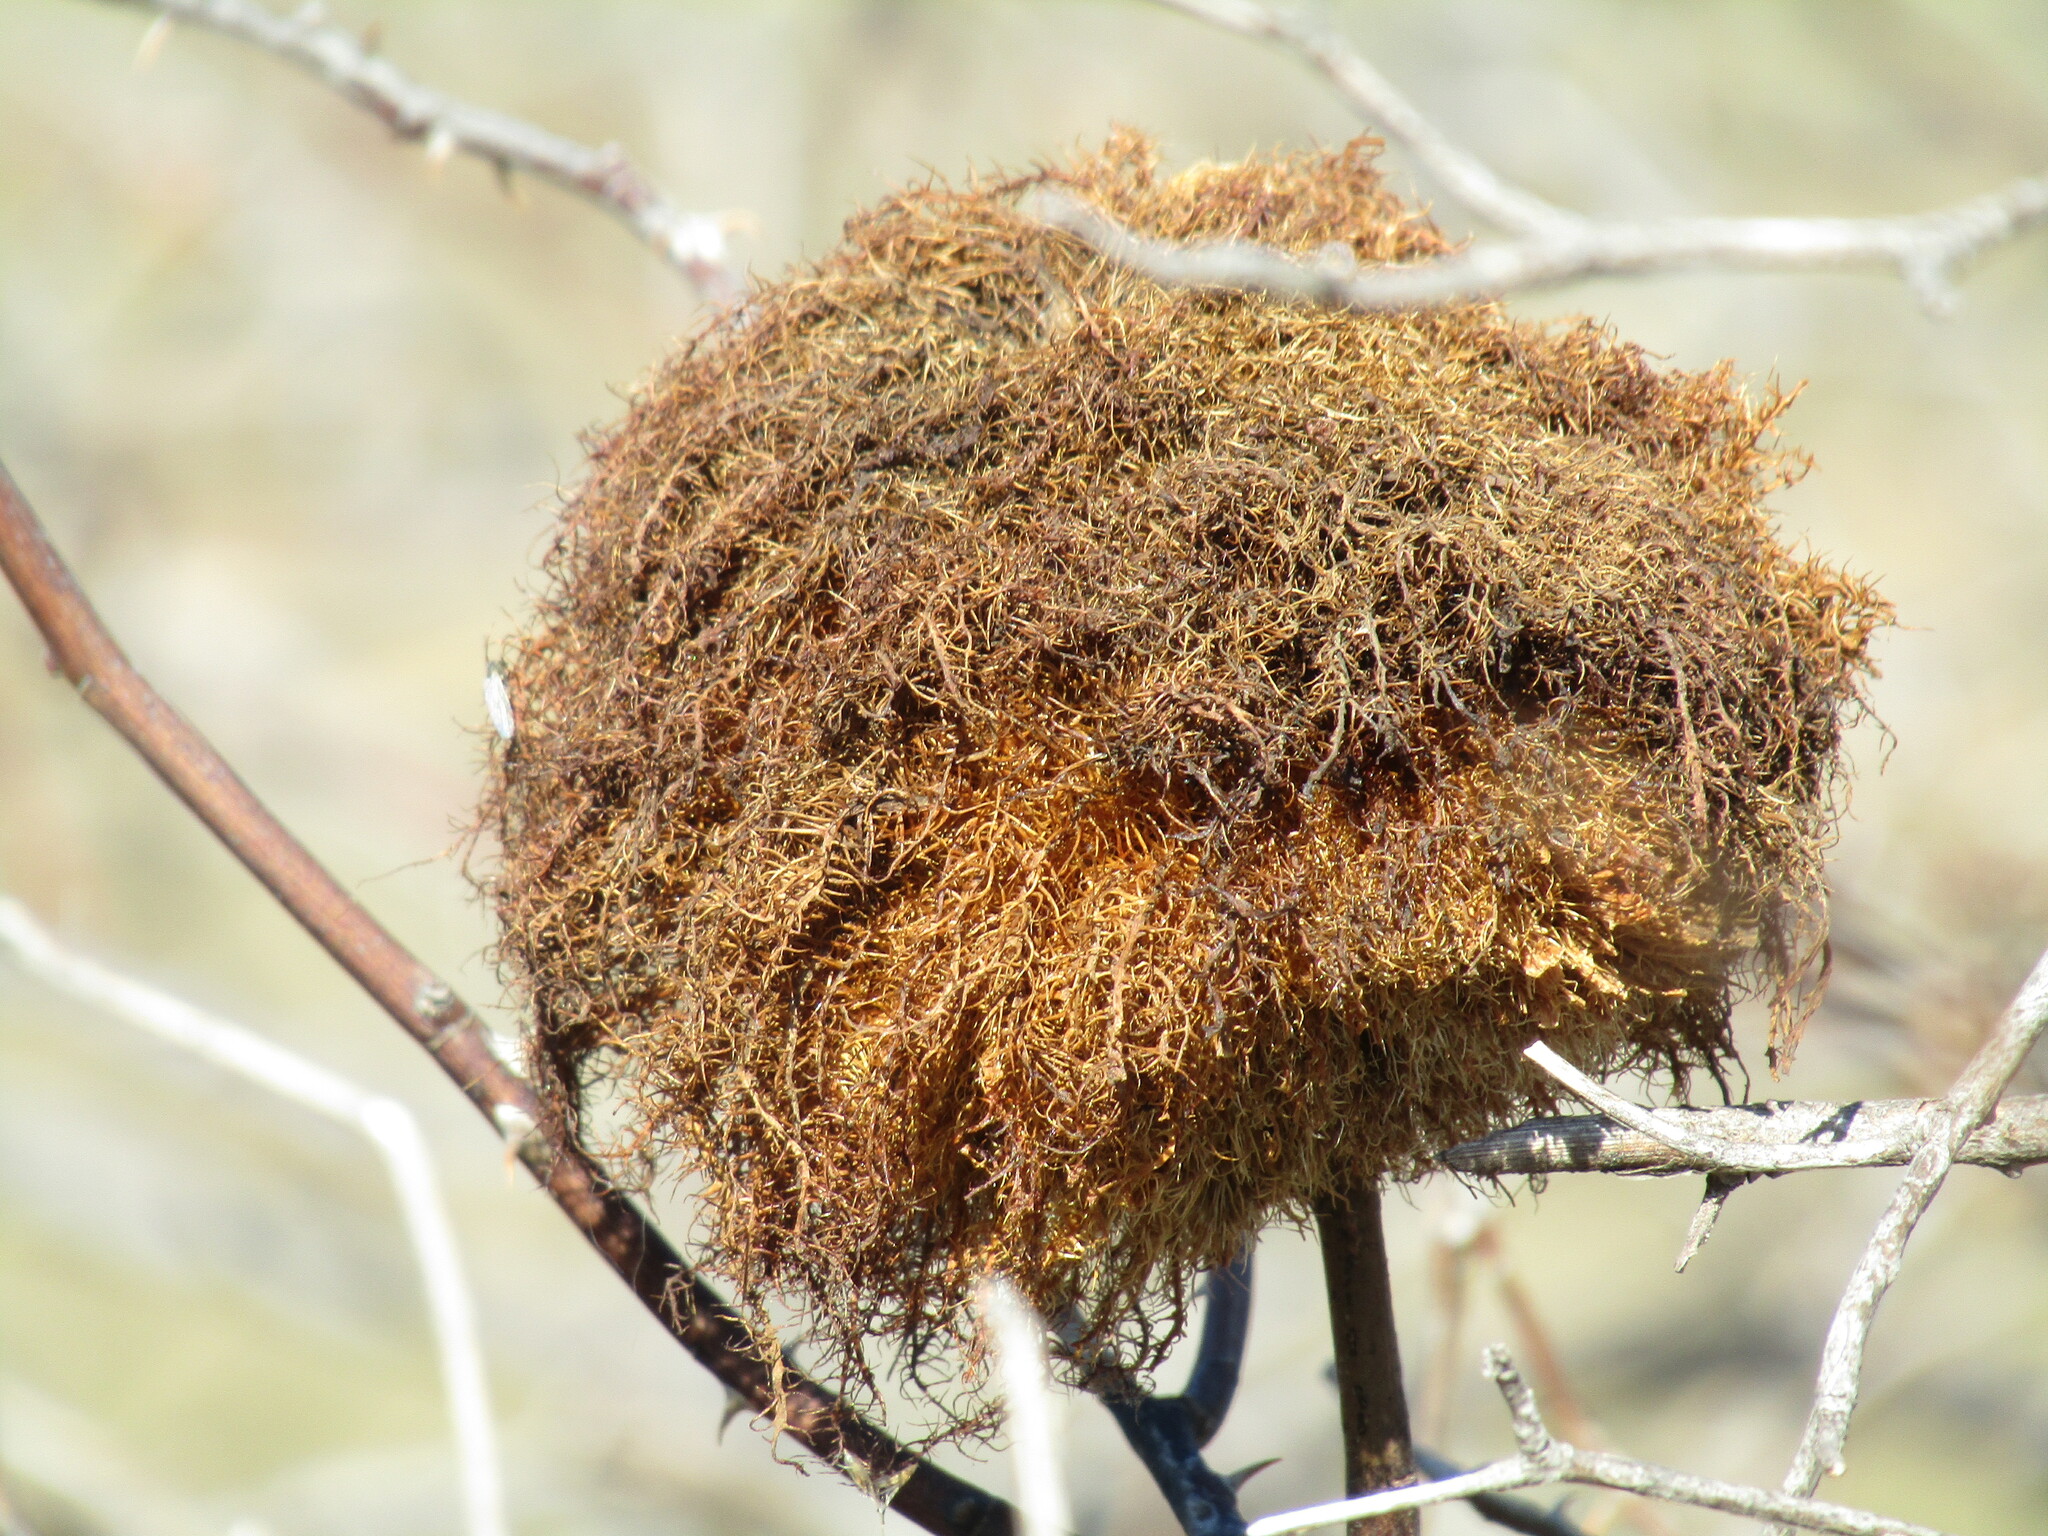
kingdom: Animalia
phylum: Arthropoda
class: Insecta
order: Hymenoptera
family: Cynipidae
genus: Diplolepis
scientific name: Diplolepis rosae
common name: Bedeguar gall
